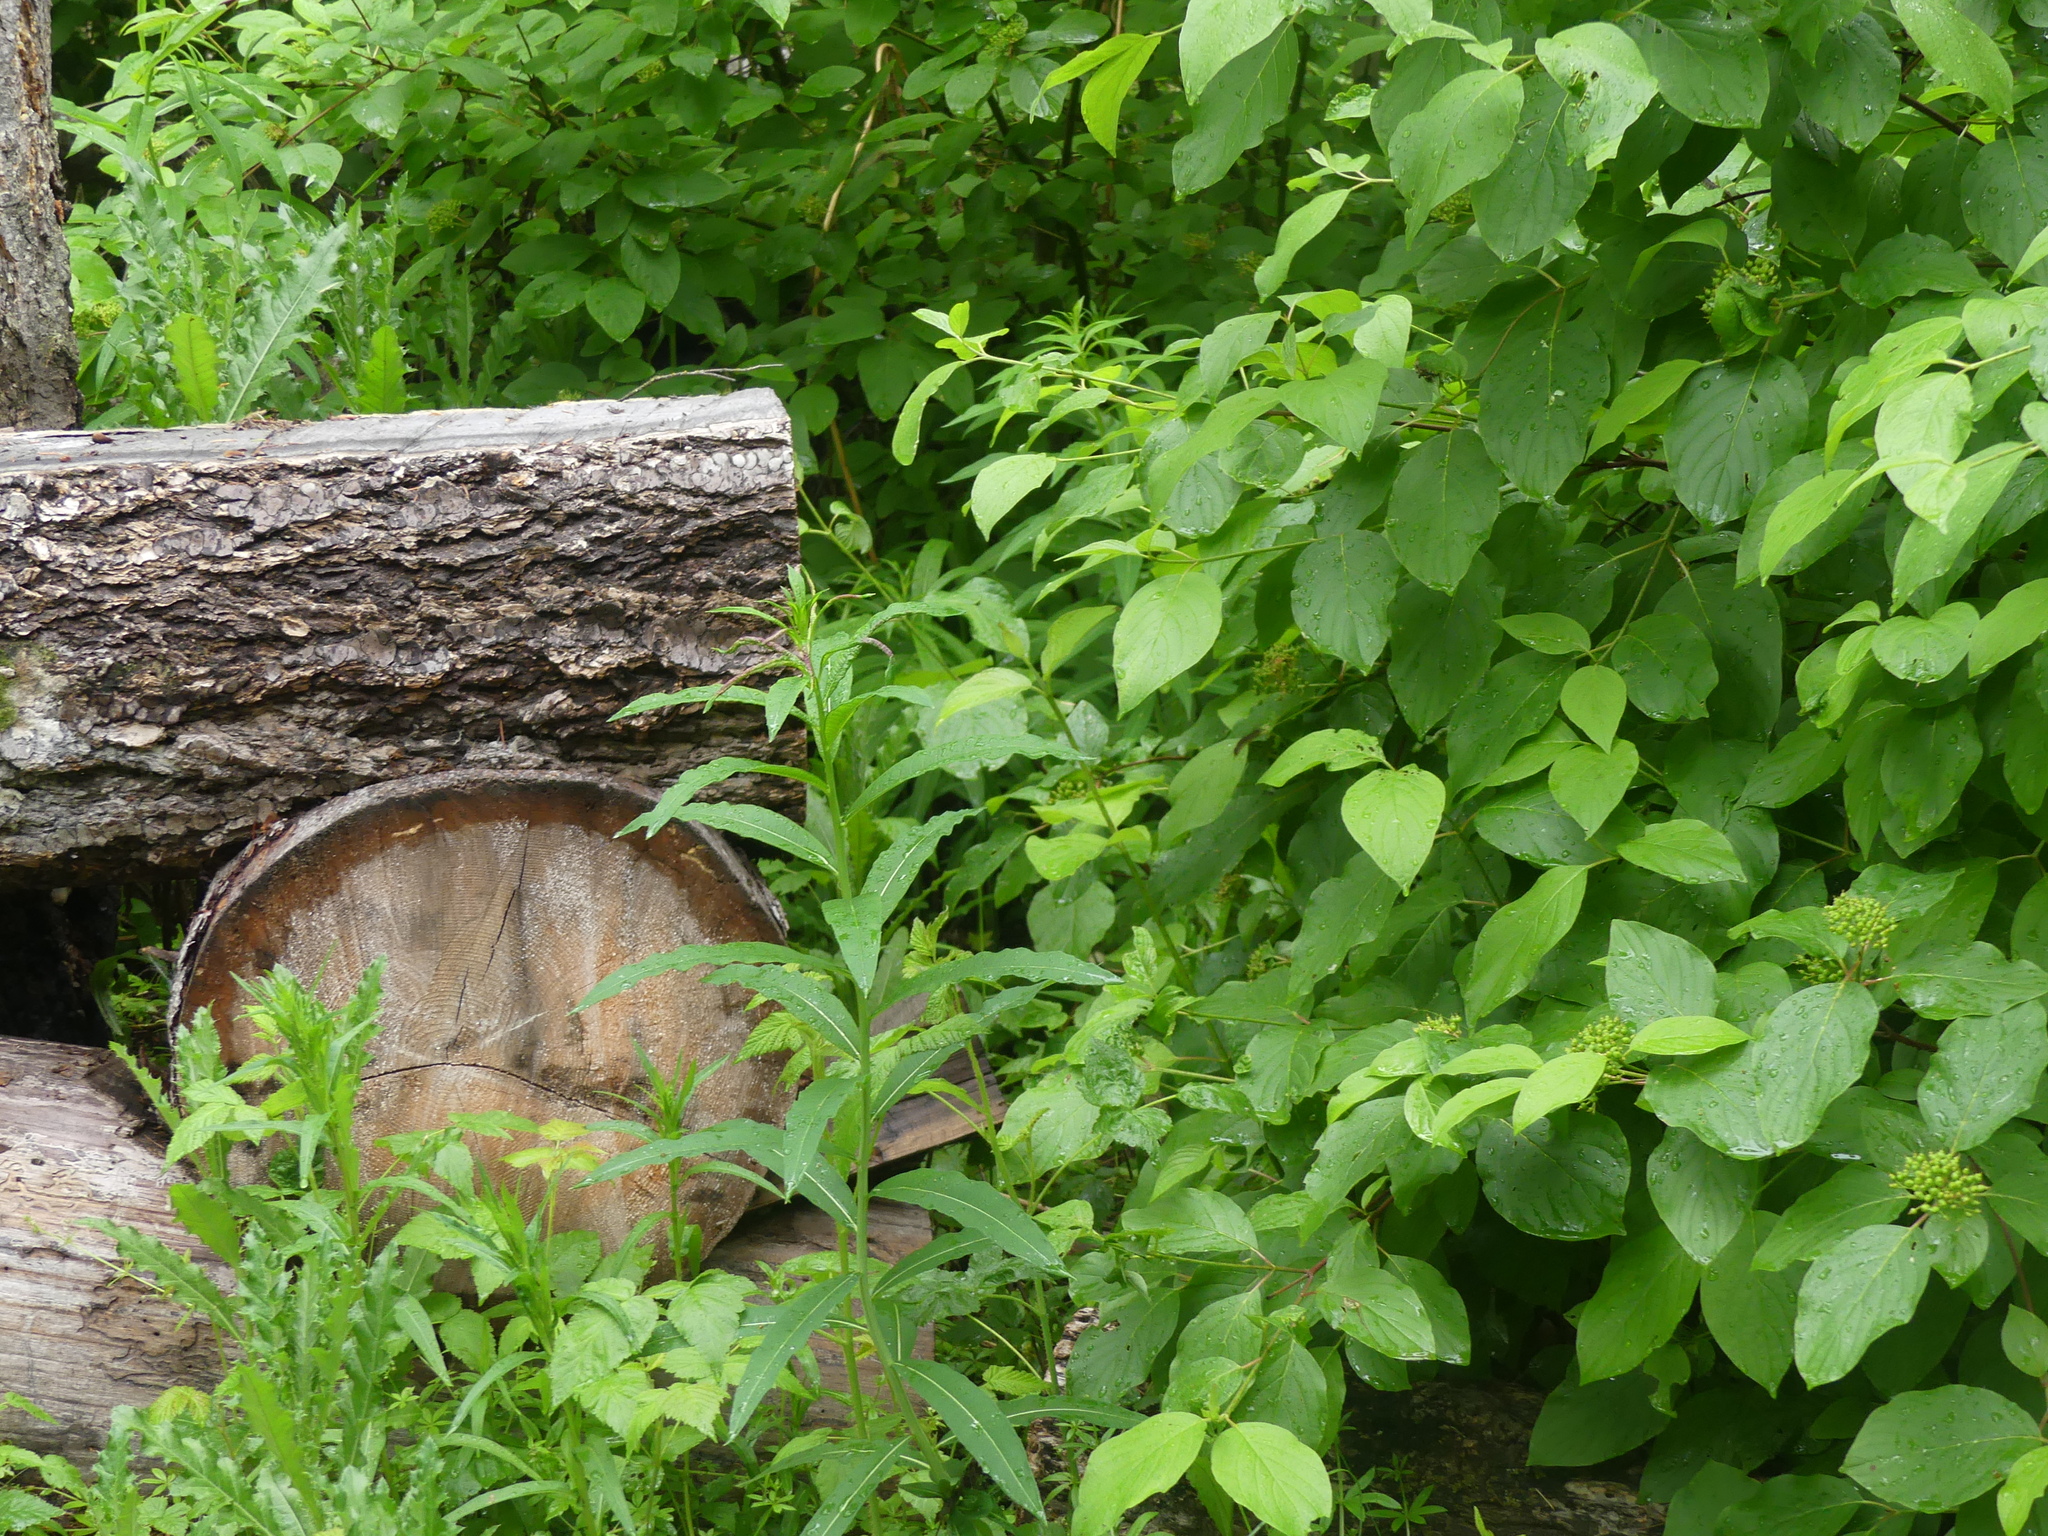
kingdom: Plantae
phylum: Tracheophyta
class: Magnoliopsida
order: Myrtales
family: Onagraceae
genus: Chamaenerion
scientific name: Chamaenerion angustifolium
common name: Fireweed
